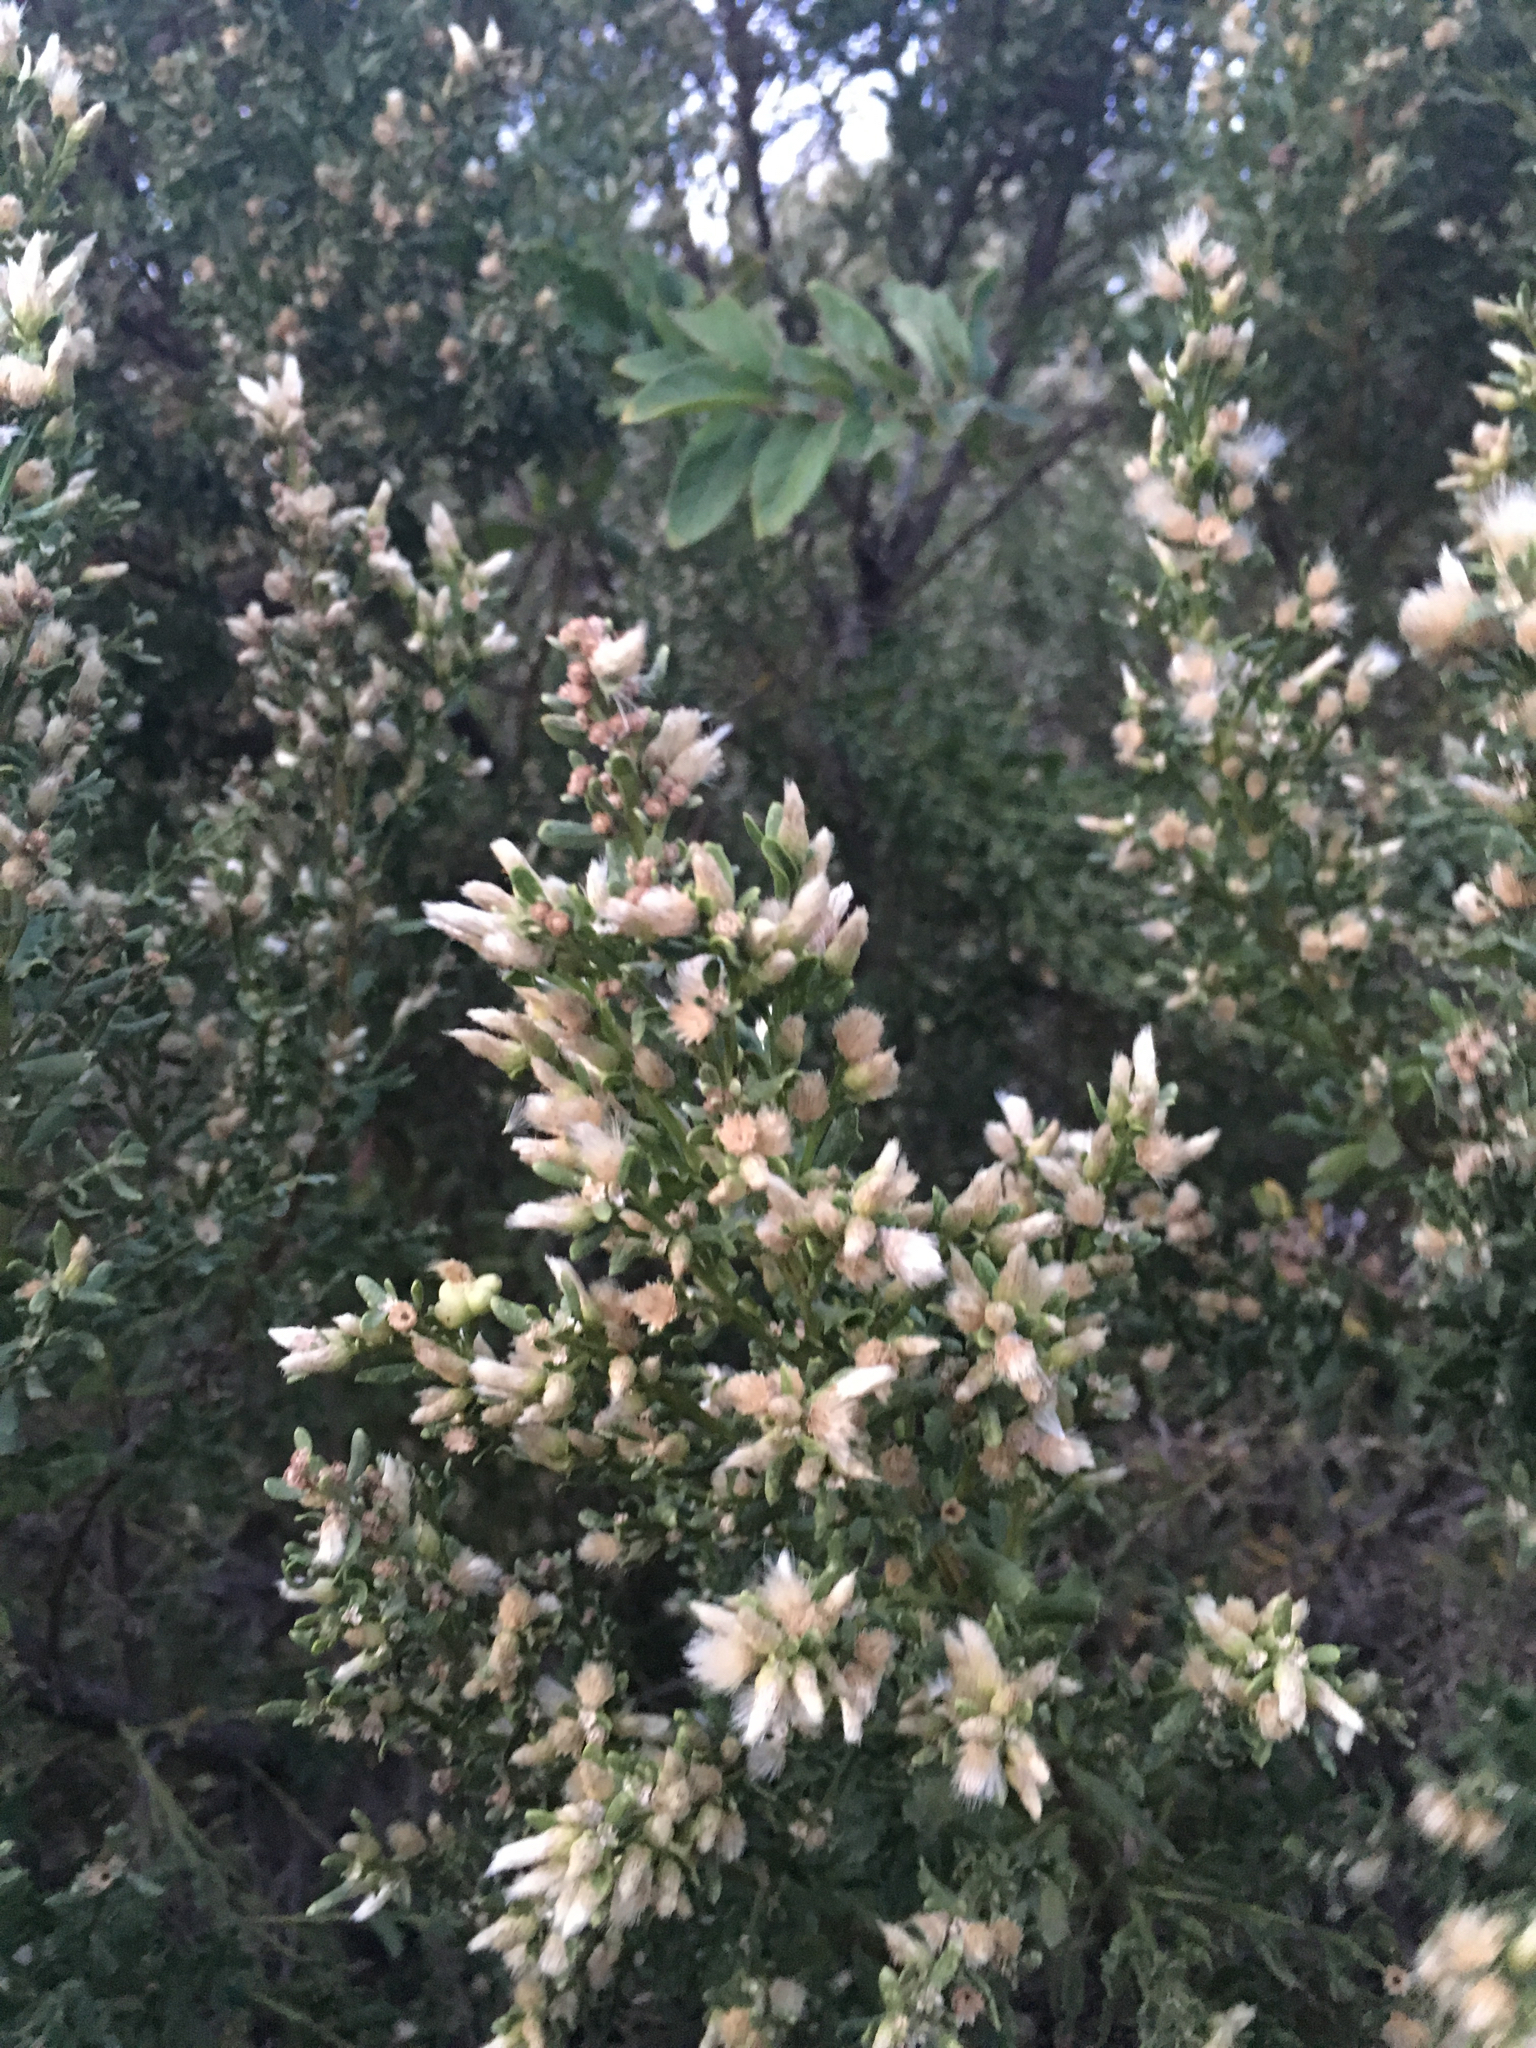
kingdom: Plantae
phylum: Tracheophyta
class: Magnoliopsida
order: Asterales
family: Asteraceae
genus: Baccharis
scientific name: Baccharis pilularis
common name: Coyotebrush
